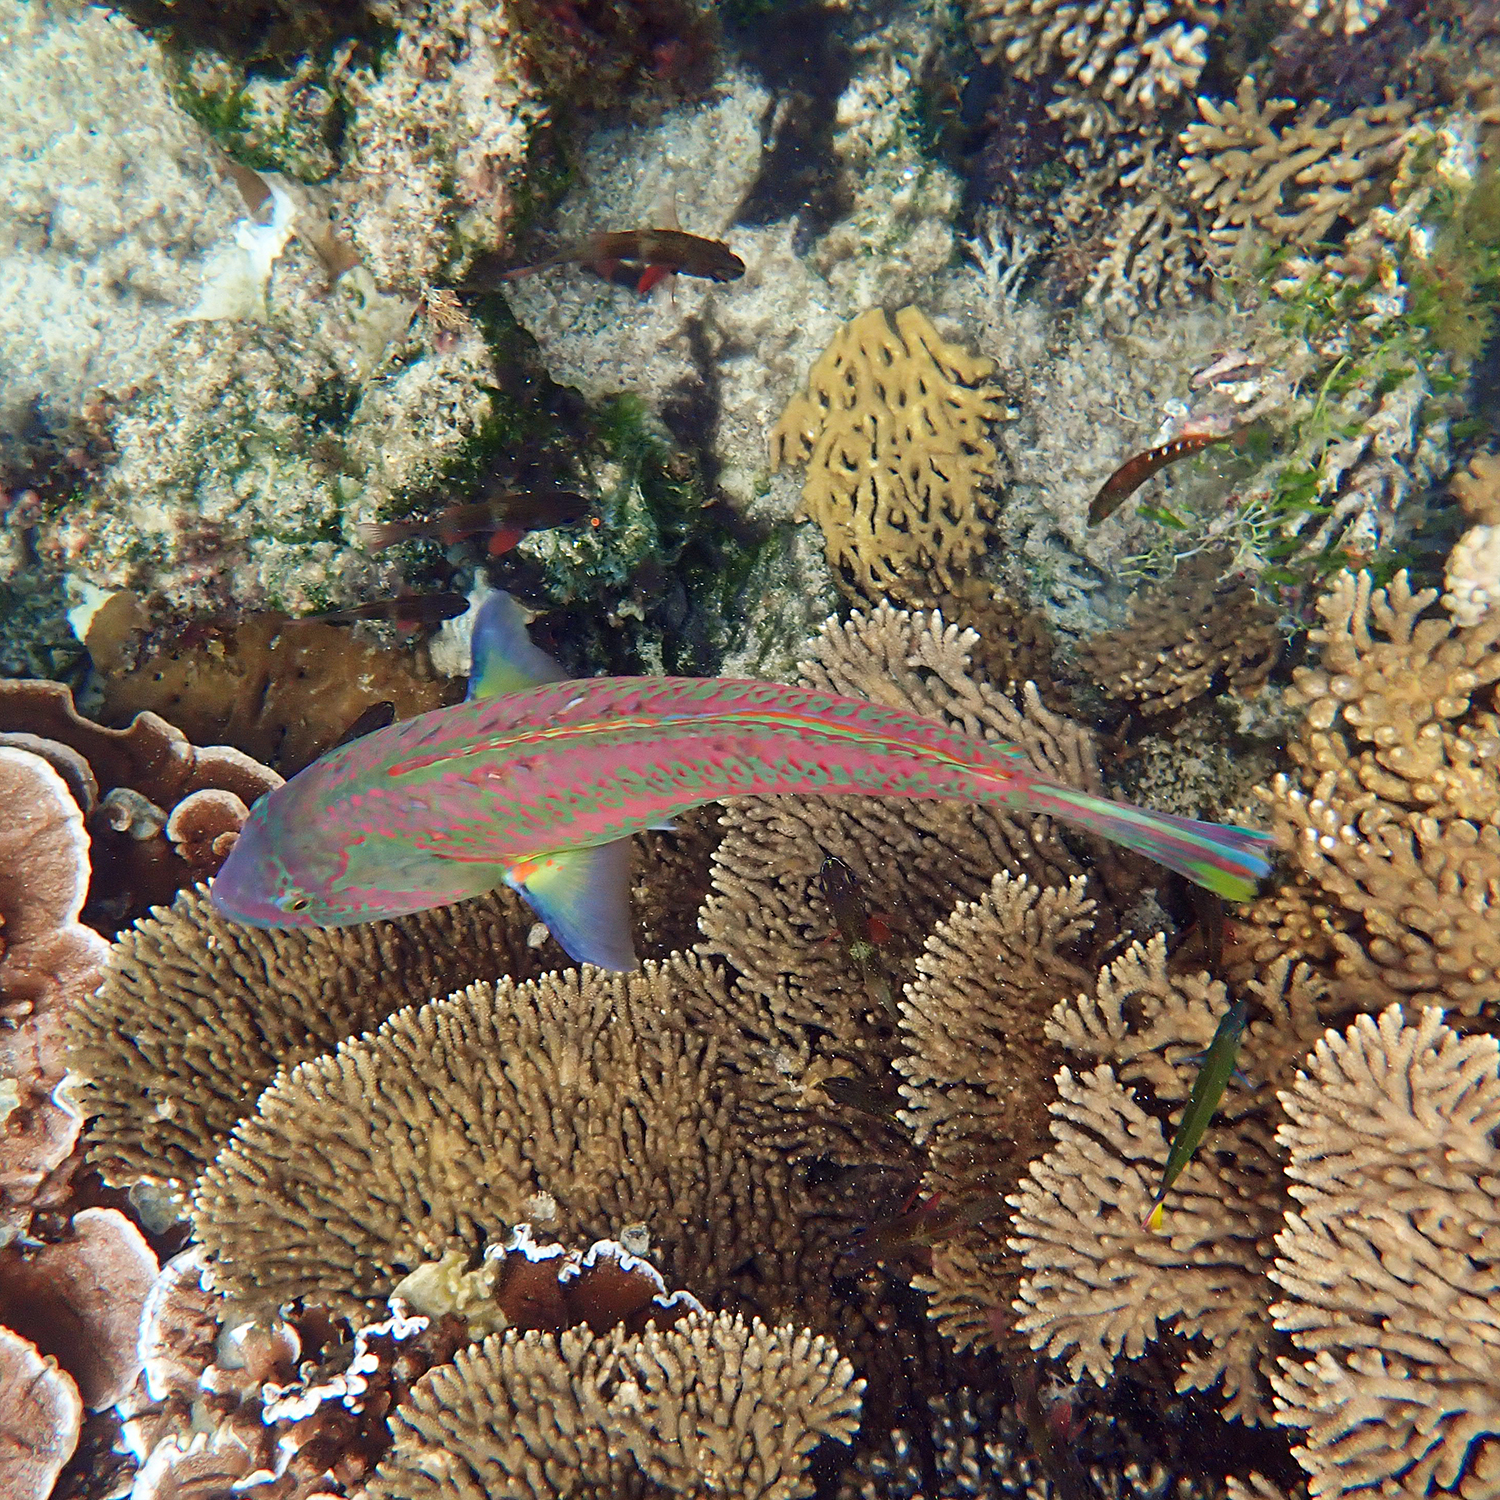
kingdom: Animalia
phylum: Chordata
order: Perciformes
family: Labridae
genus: Thalassoma
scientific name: Thalassoma purpureum
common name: Parrotfish
